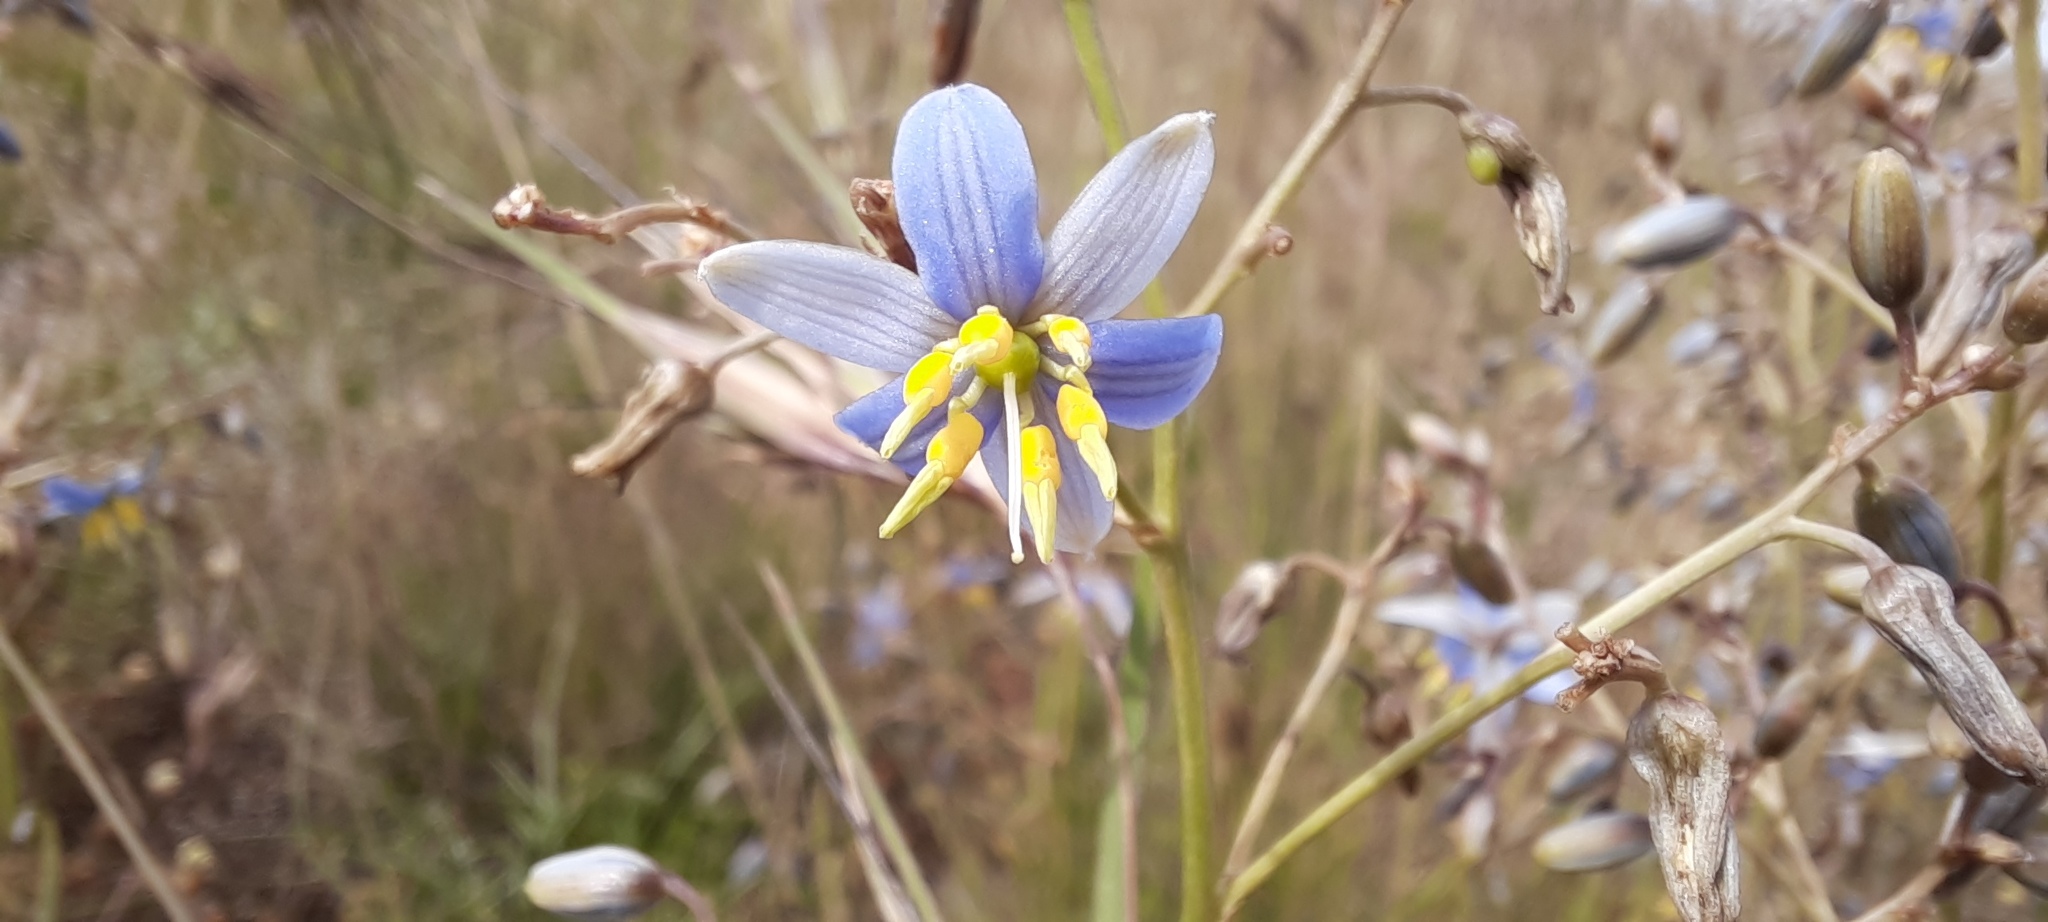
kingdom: Plantae
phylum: Tracheophyta
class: Liliopsida
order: Asparagales
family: Asphodelaceae
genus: Dianella
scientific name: Dianella amoena
